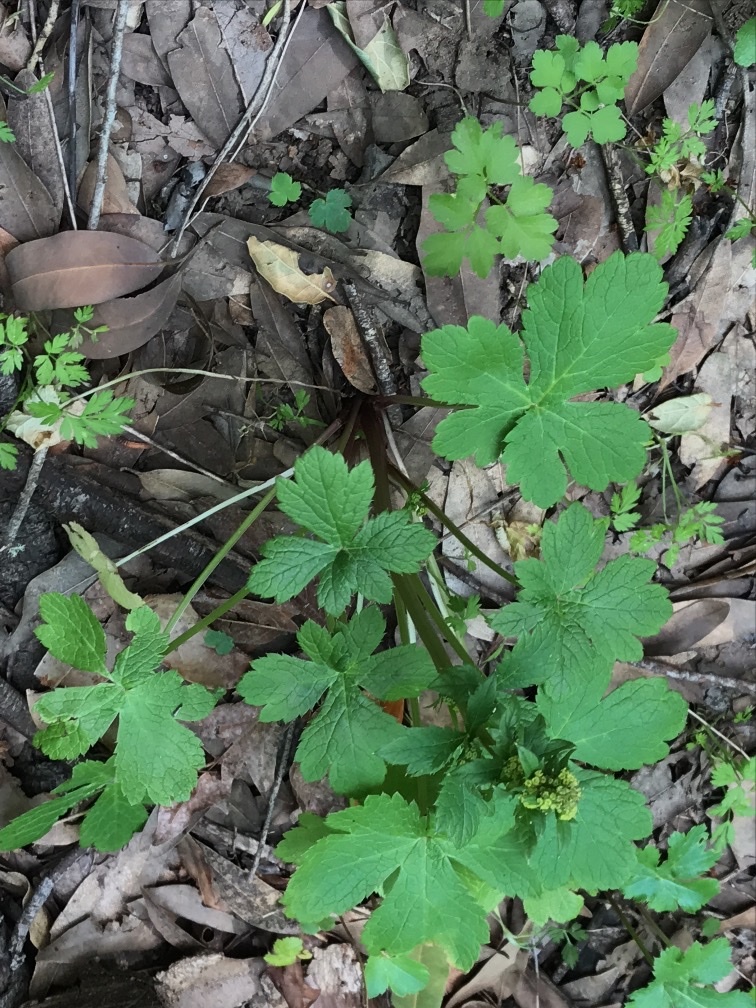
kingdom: Plantae
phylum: Tracheophyta
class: Magnoliopsida
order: Apiales
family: Apiaceae
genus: Sanicula
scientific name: Sanicula crassicaulis
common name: Western snakeroot
